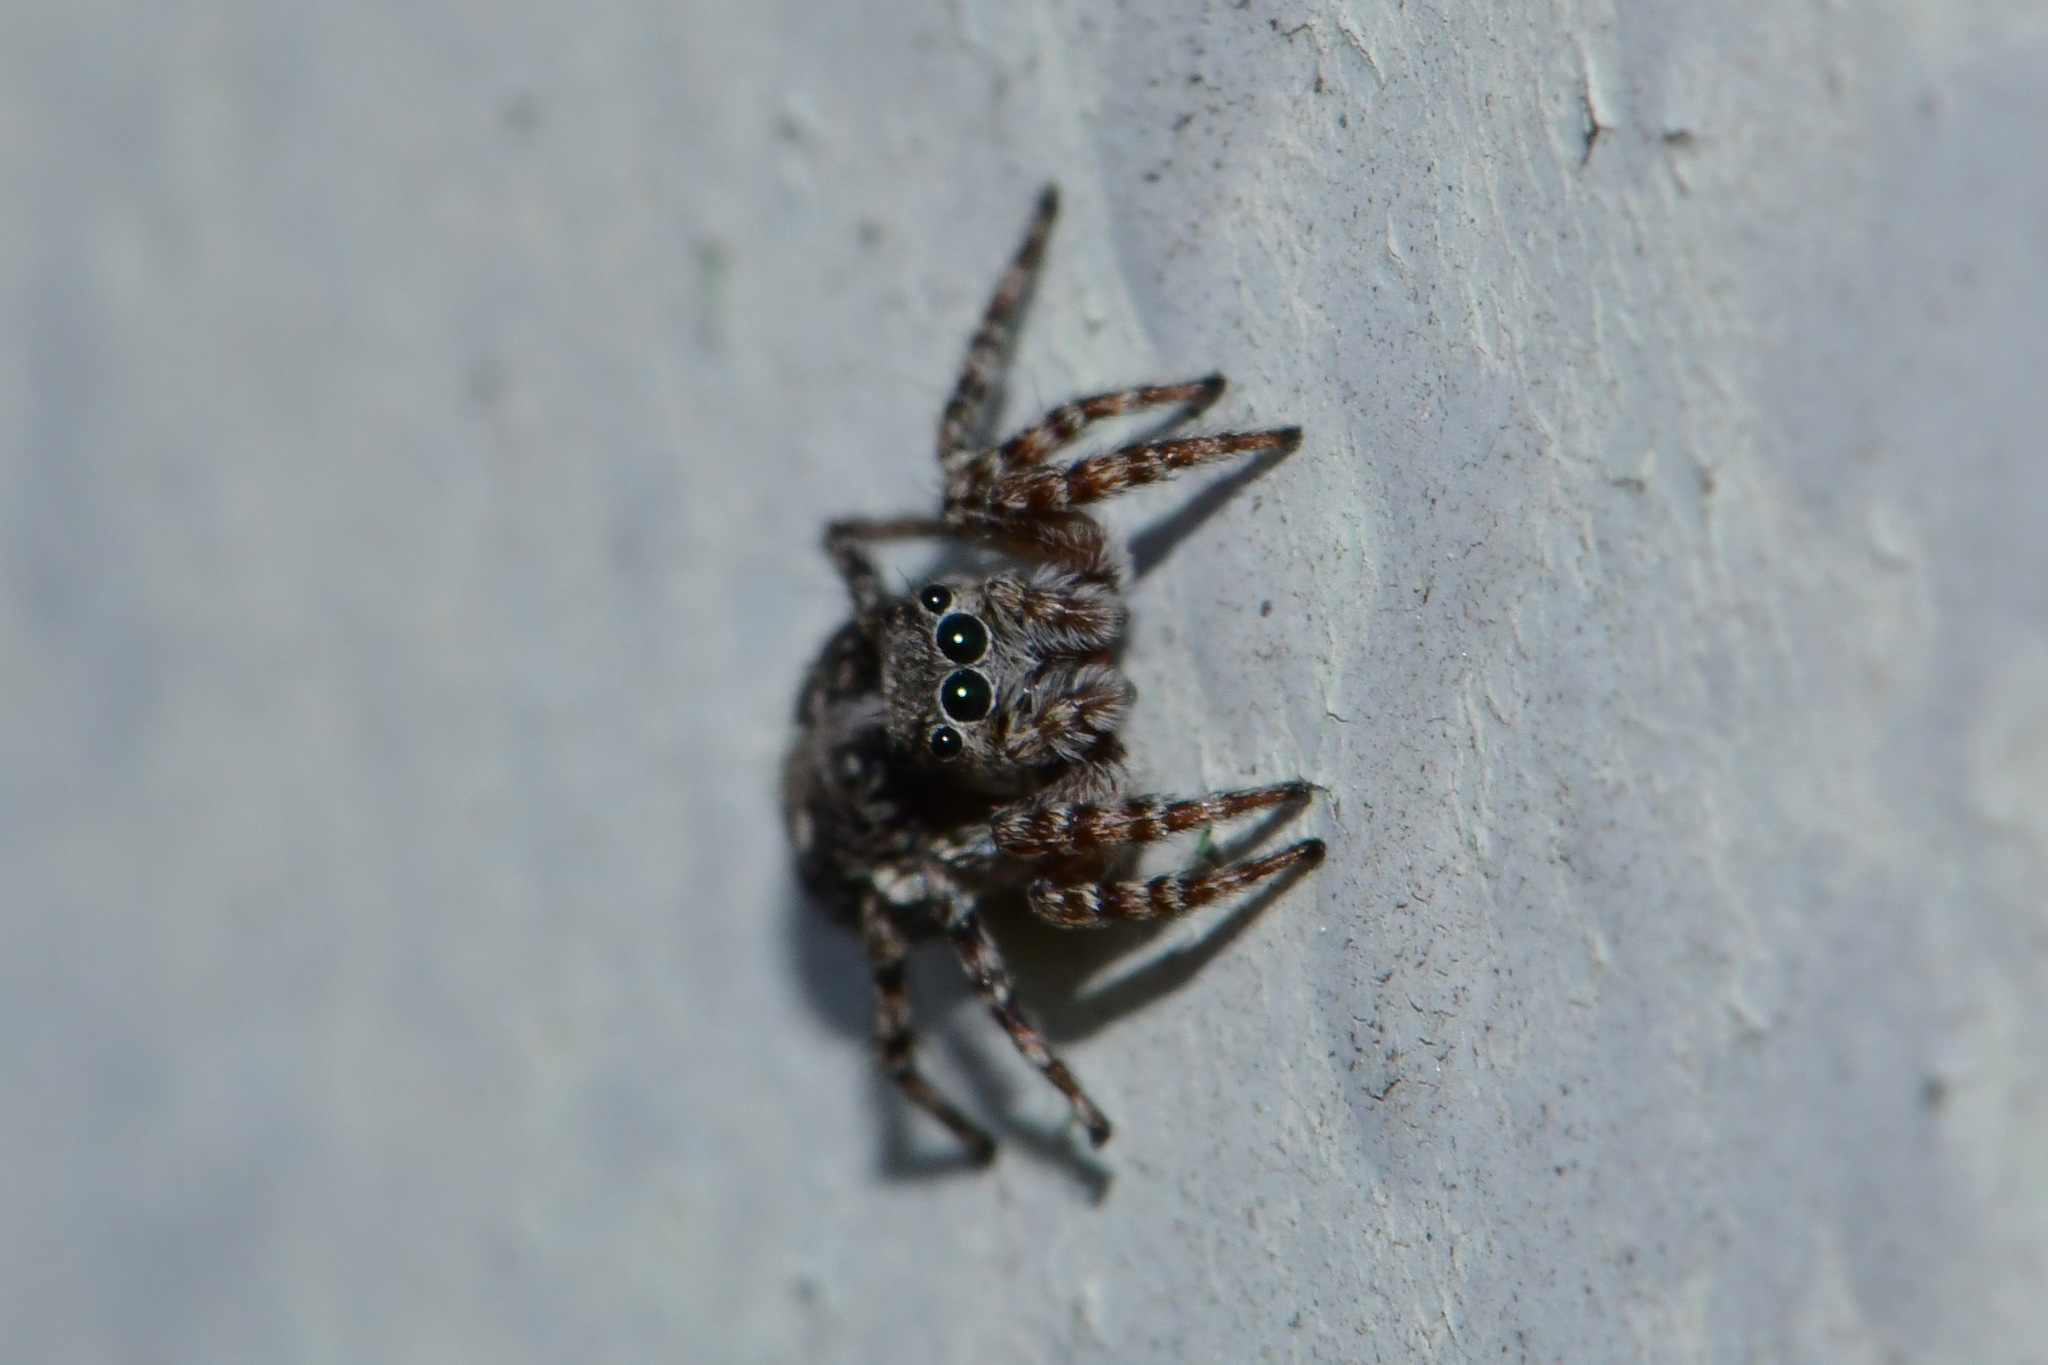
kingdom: Animalia
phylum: Arthropoda
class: Arachnida
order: Araneae
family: Salticidae
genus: Attulus
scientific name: Attulus terebratus
